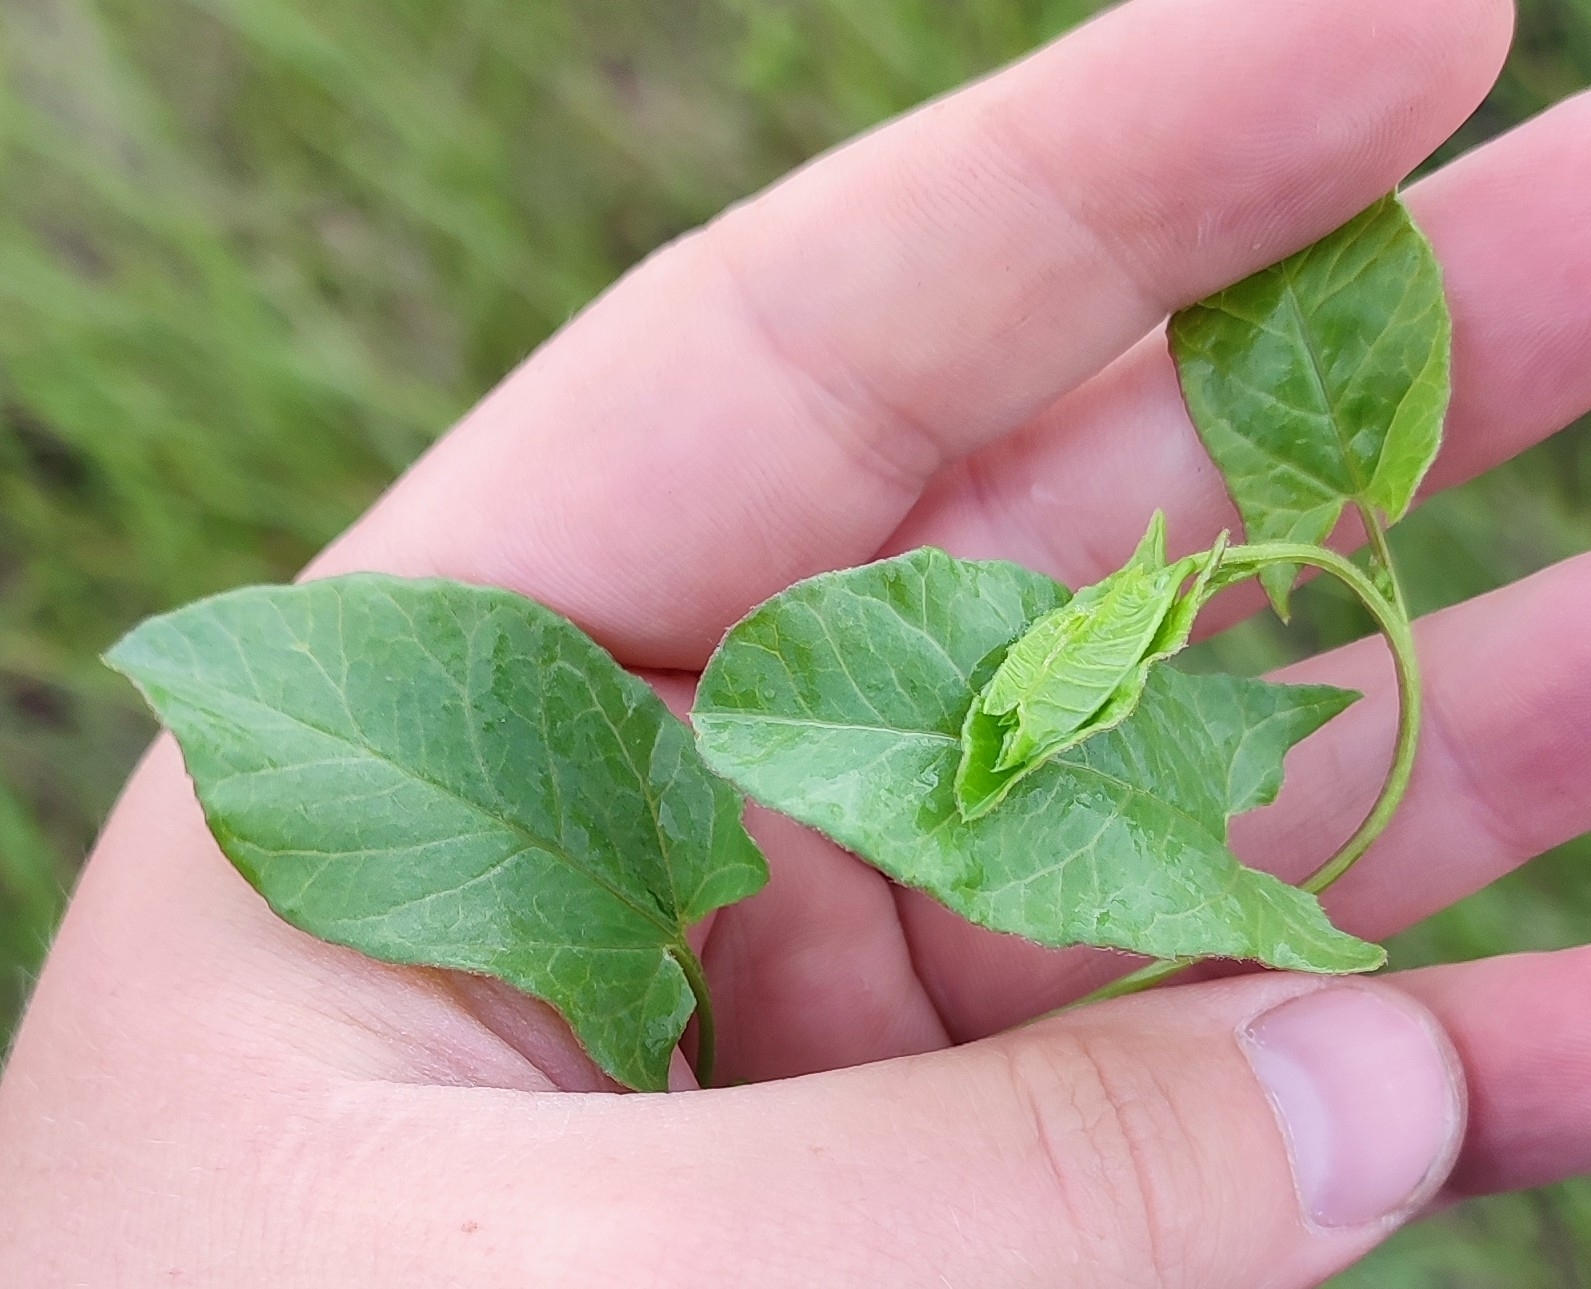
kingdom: Plantae
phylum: Tracheophyta
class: Magnoliopsida
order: Solanales
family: Convolvulaceae
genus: Convolvulus
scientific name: Convolvulus arvensis
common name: Field bindweed
